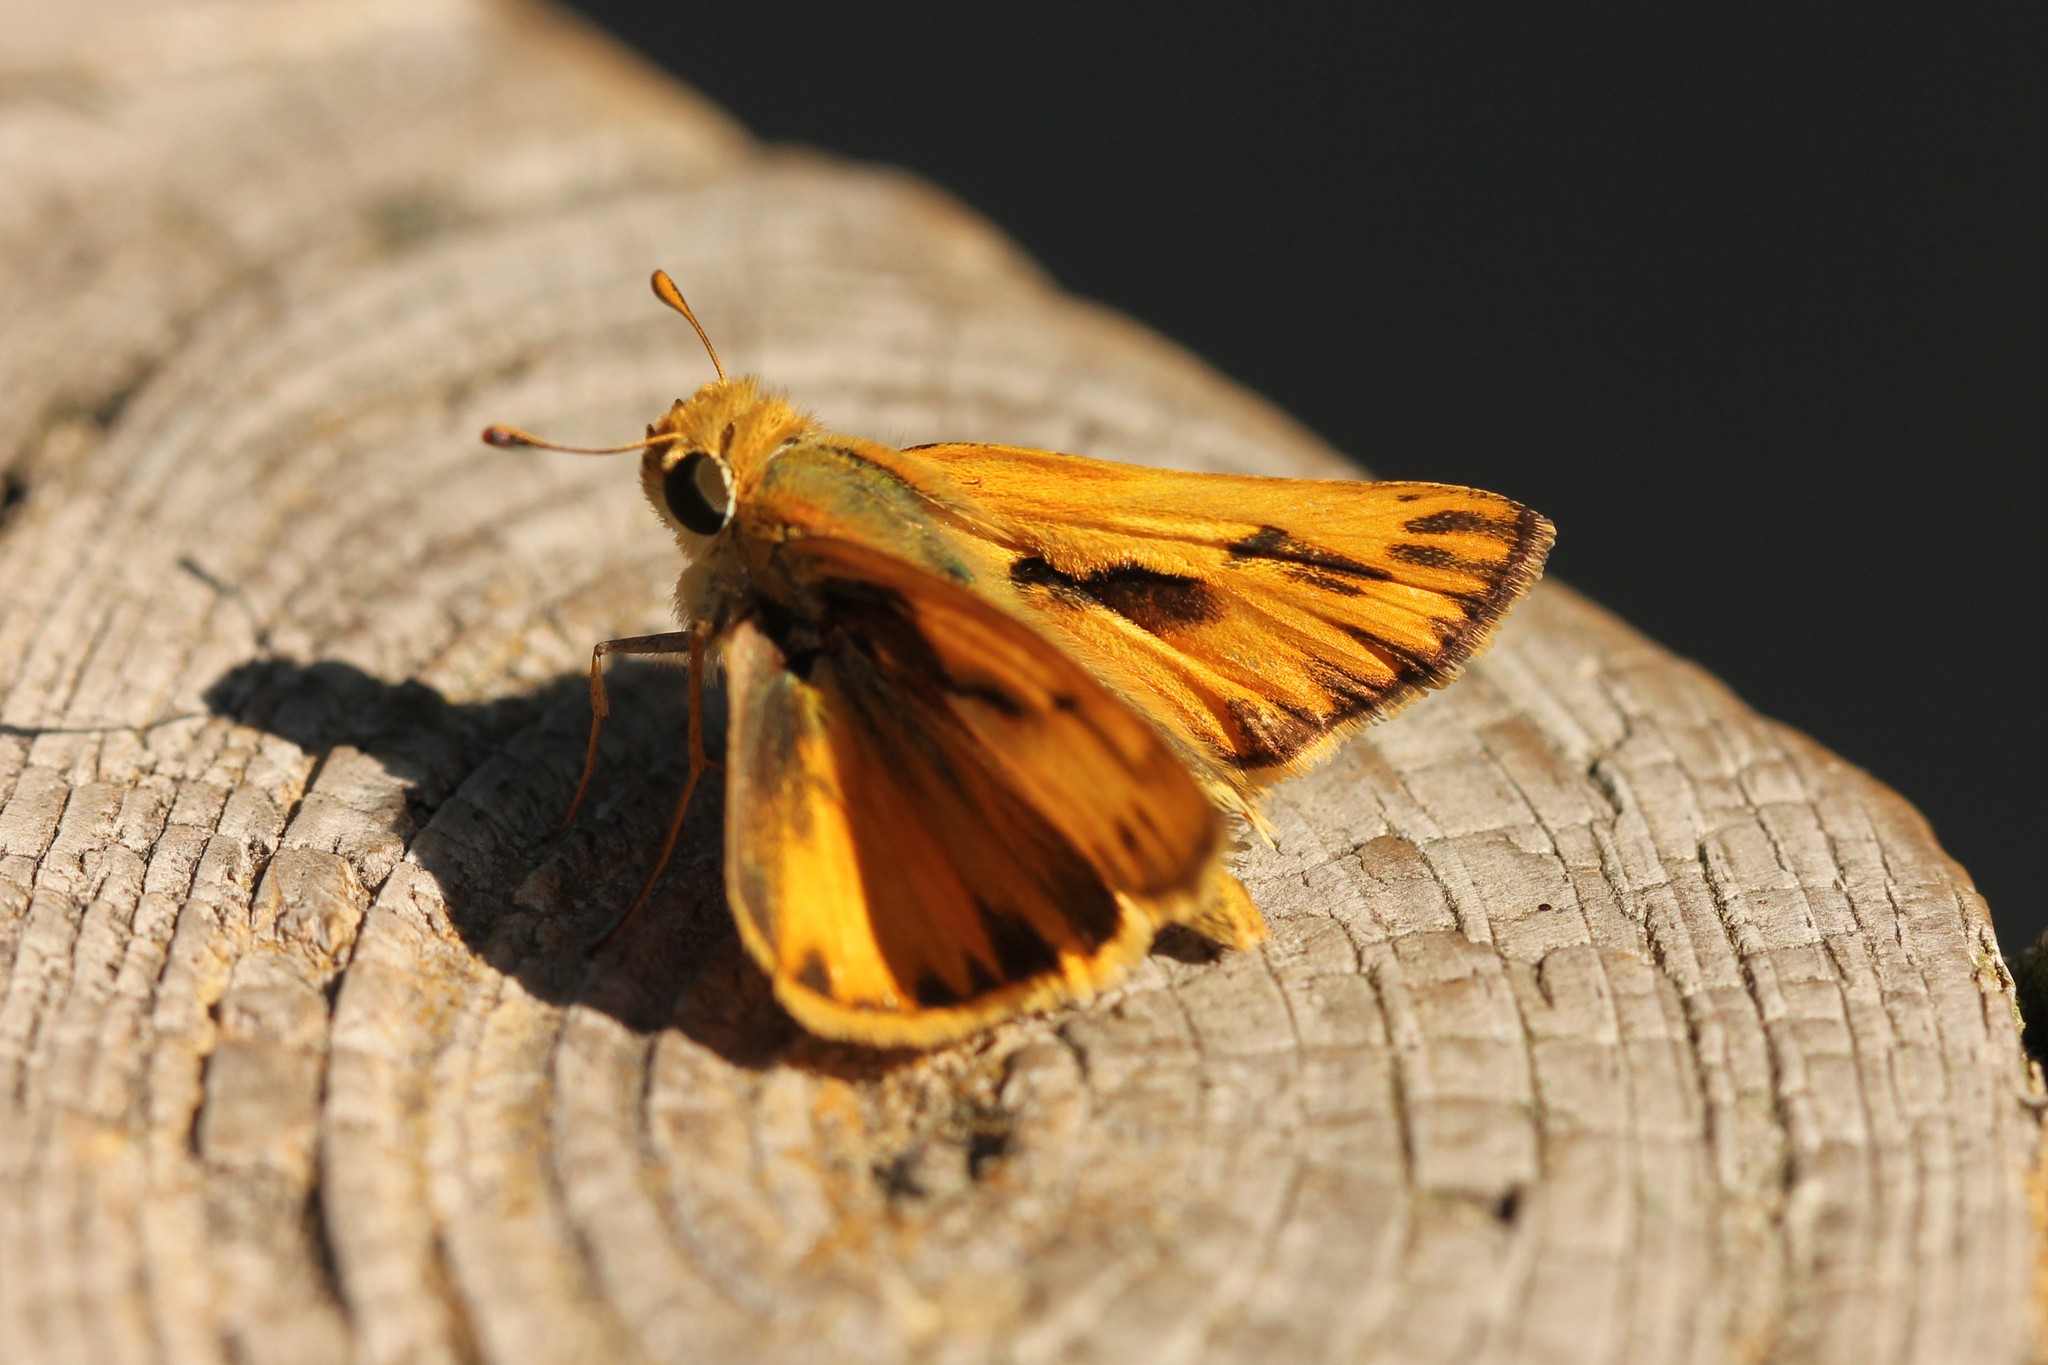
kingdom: Animalia
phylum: Arthropoda
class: Insecta
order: Lepidoptera
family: Hesperiidae
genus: Hylephila
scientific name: Hylephila phyleus
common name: Fiery skipper
